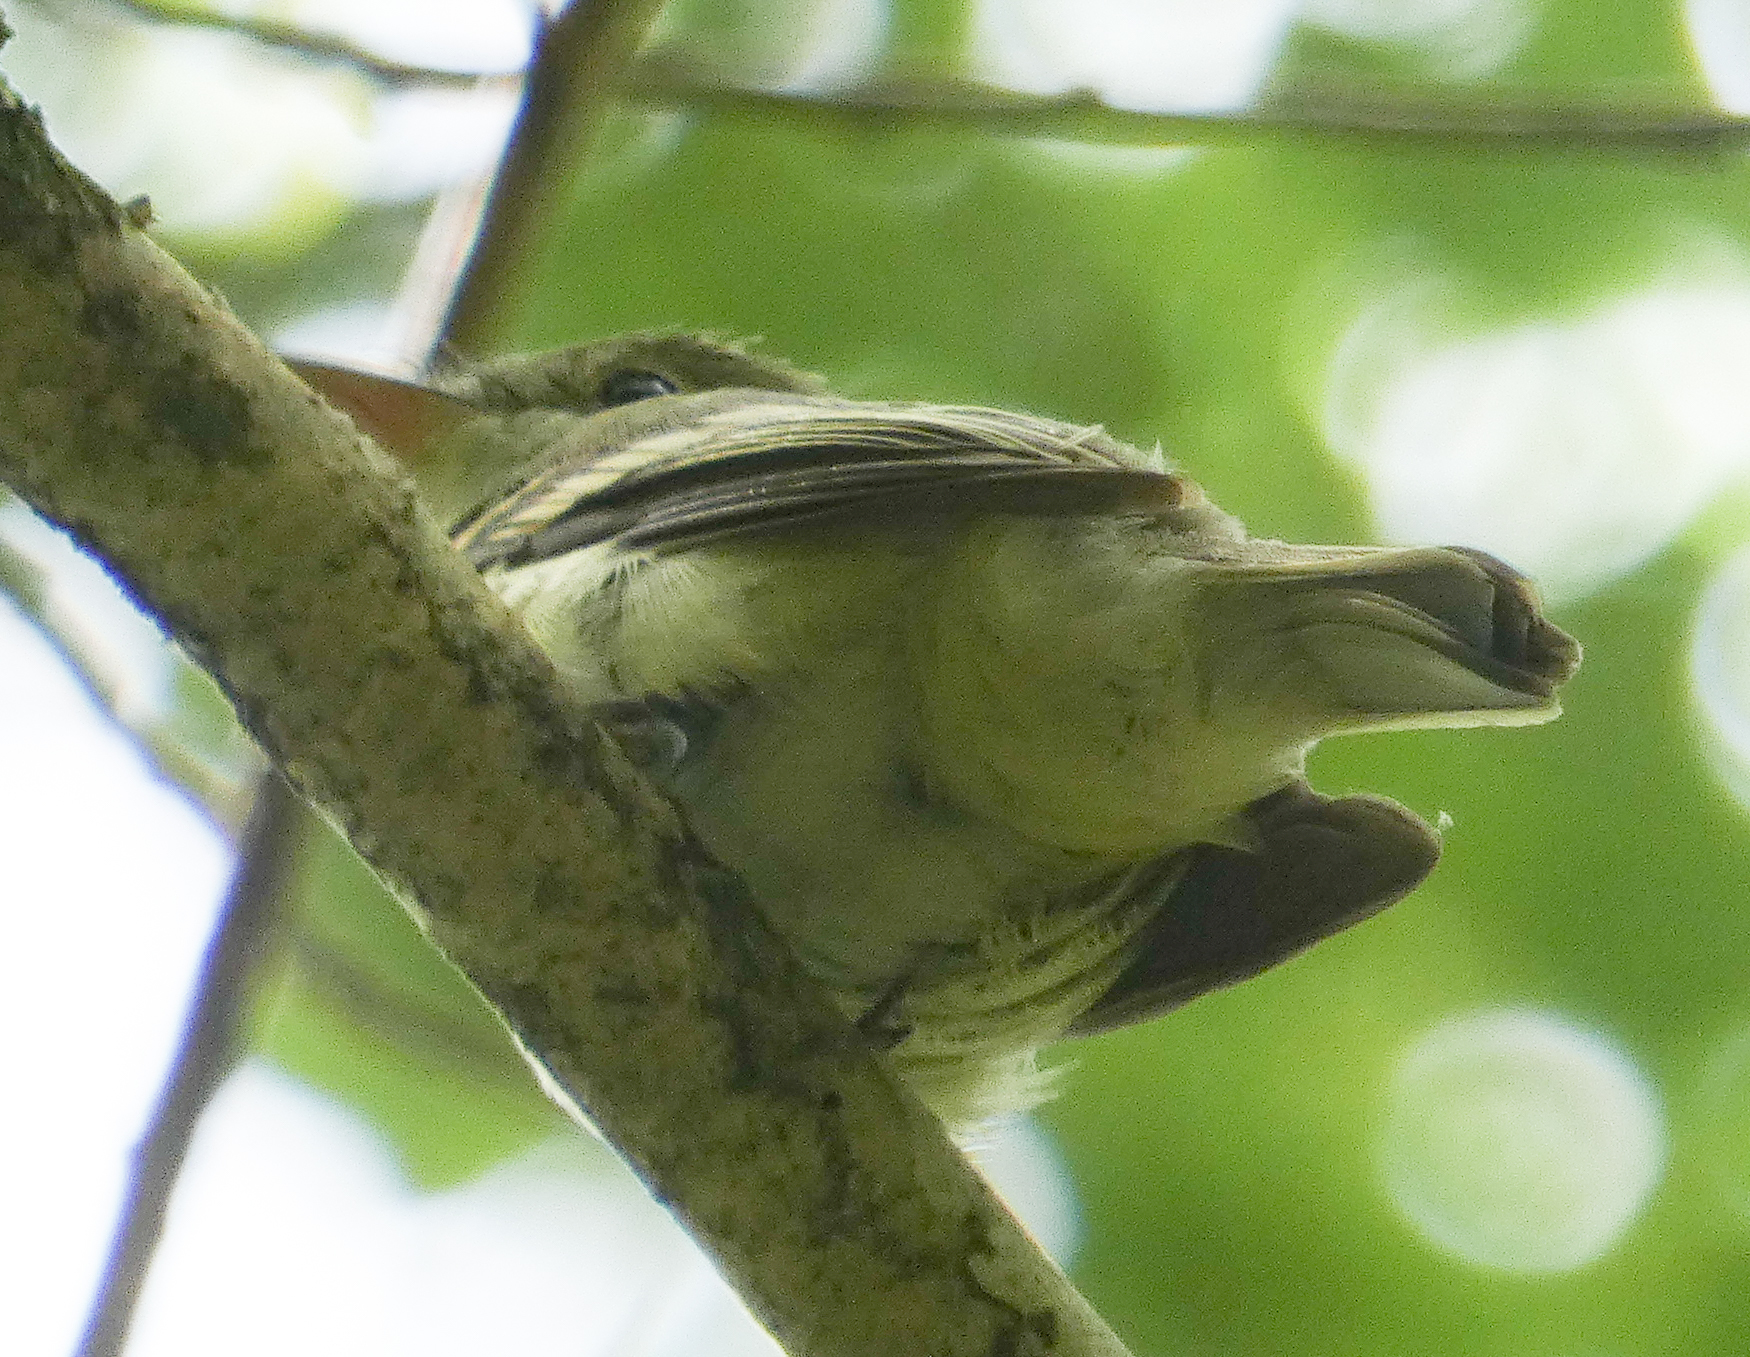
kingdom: Animalia
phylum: Chordata
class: Aves
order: Passeriformes
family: Tyrannidae
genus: Empidonax
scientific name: Empidonax virescens
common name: Acadian flycatcher
